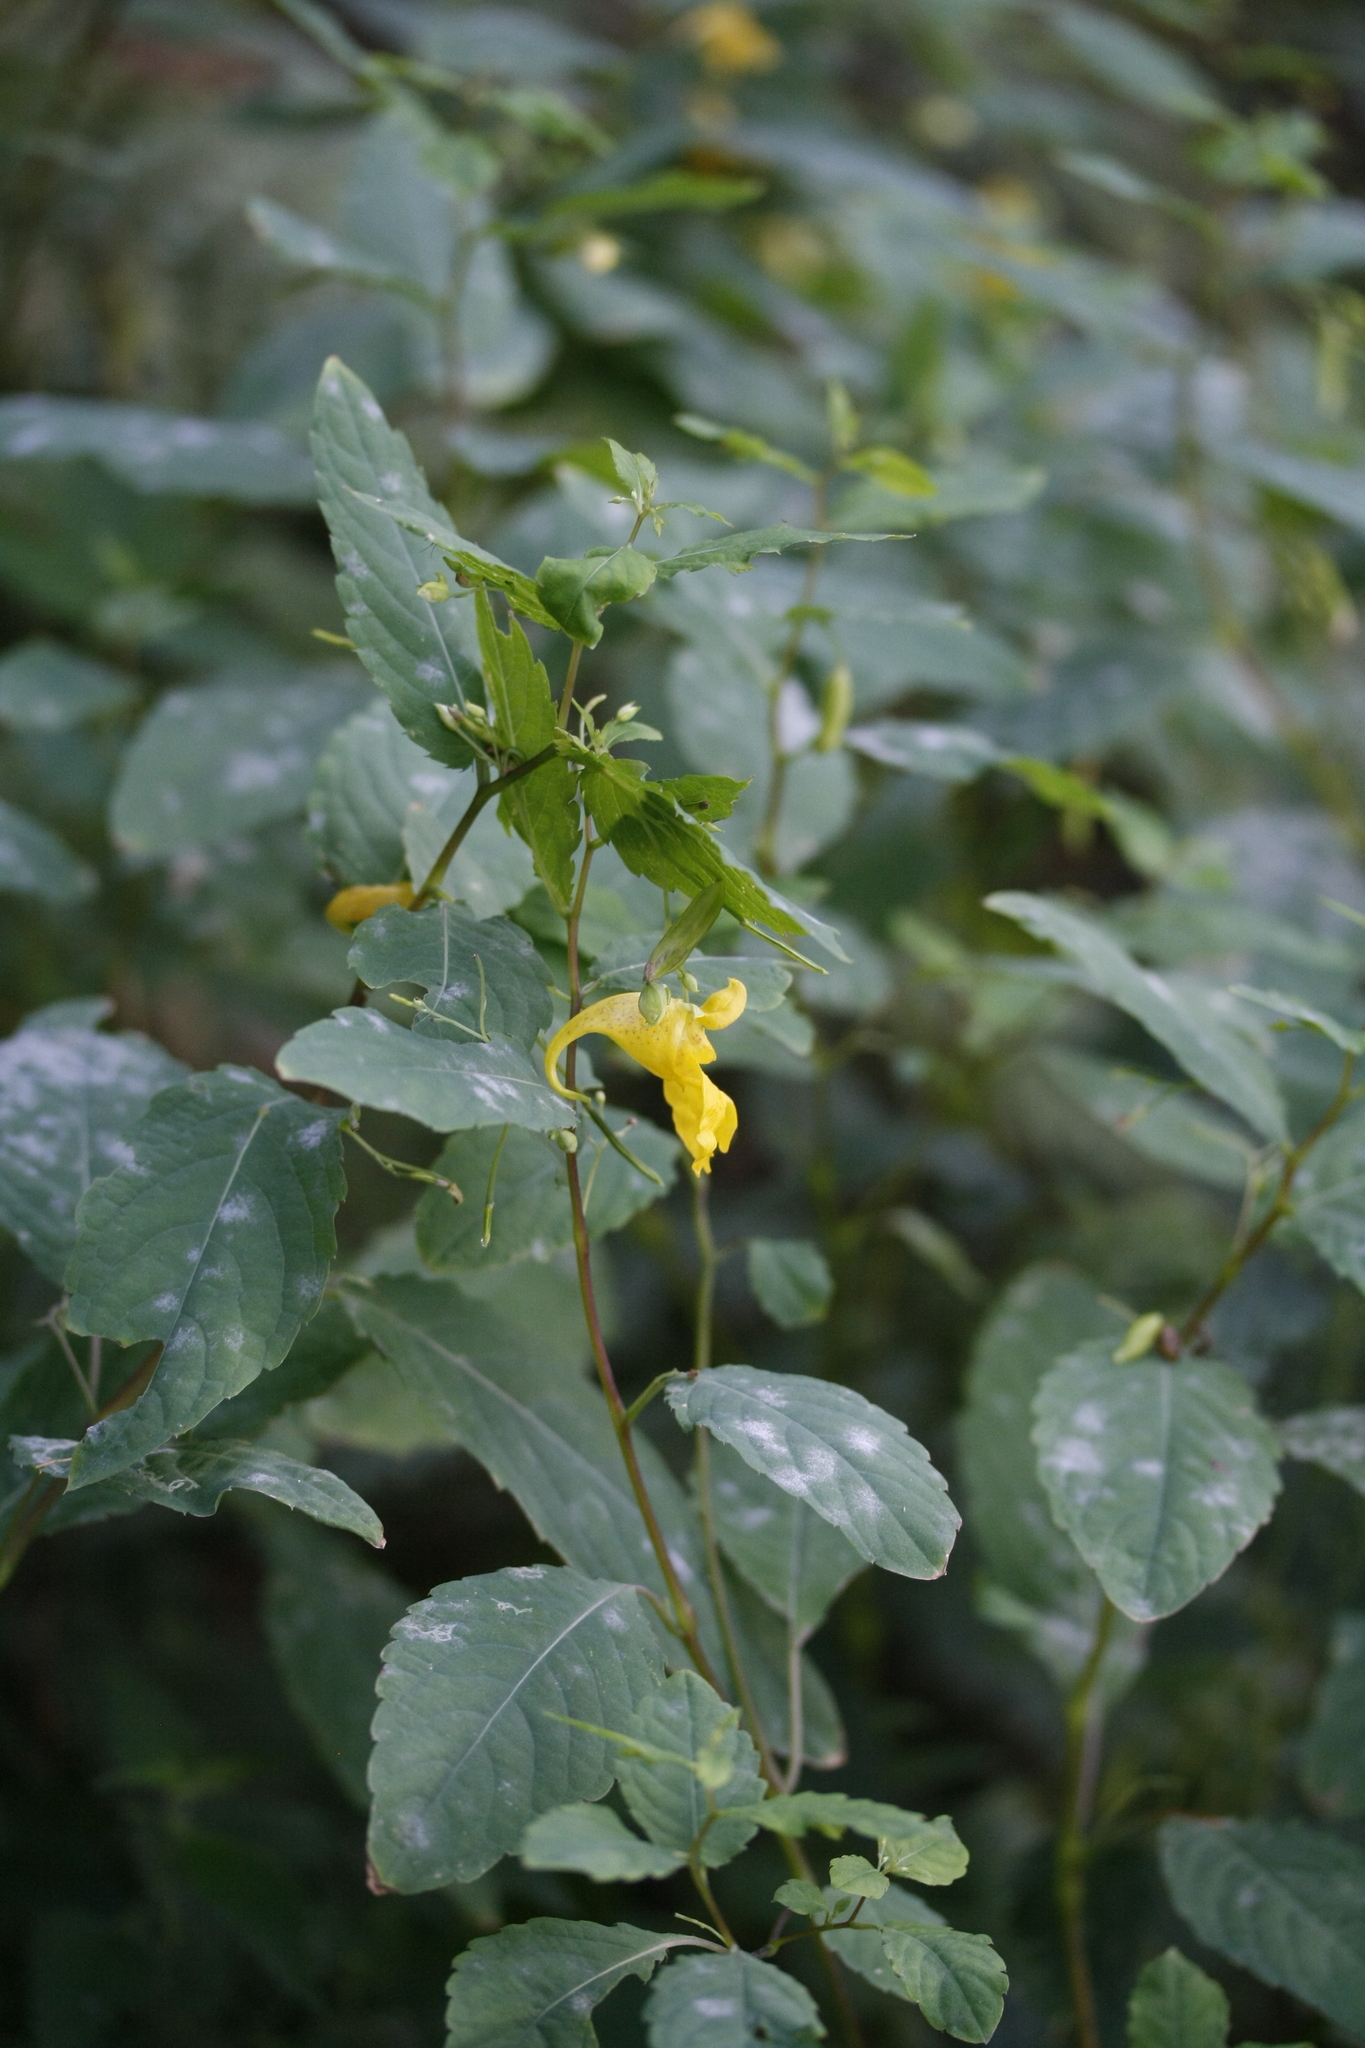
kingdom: Plantae
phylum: Tracheophyta
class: Magnoliopsida
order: Ericales
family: Balsaminaceae
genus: Impatiens
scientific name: Impatiens noli-tangere
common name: Touch-me-not balsam
